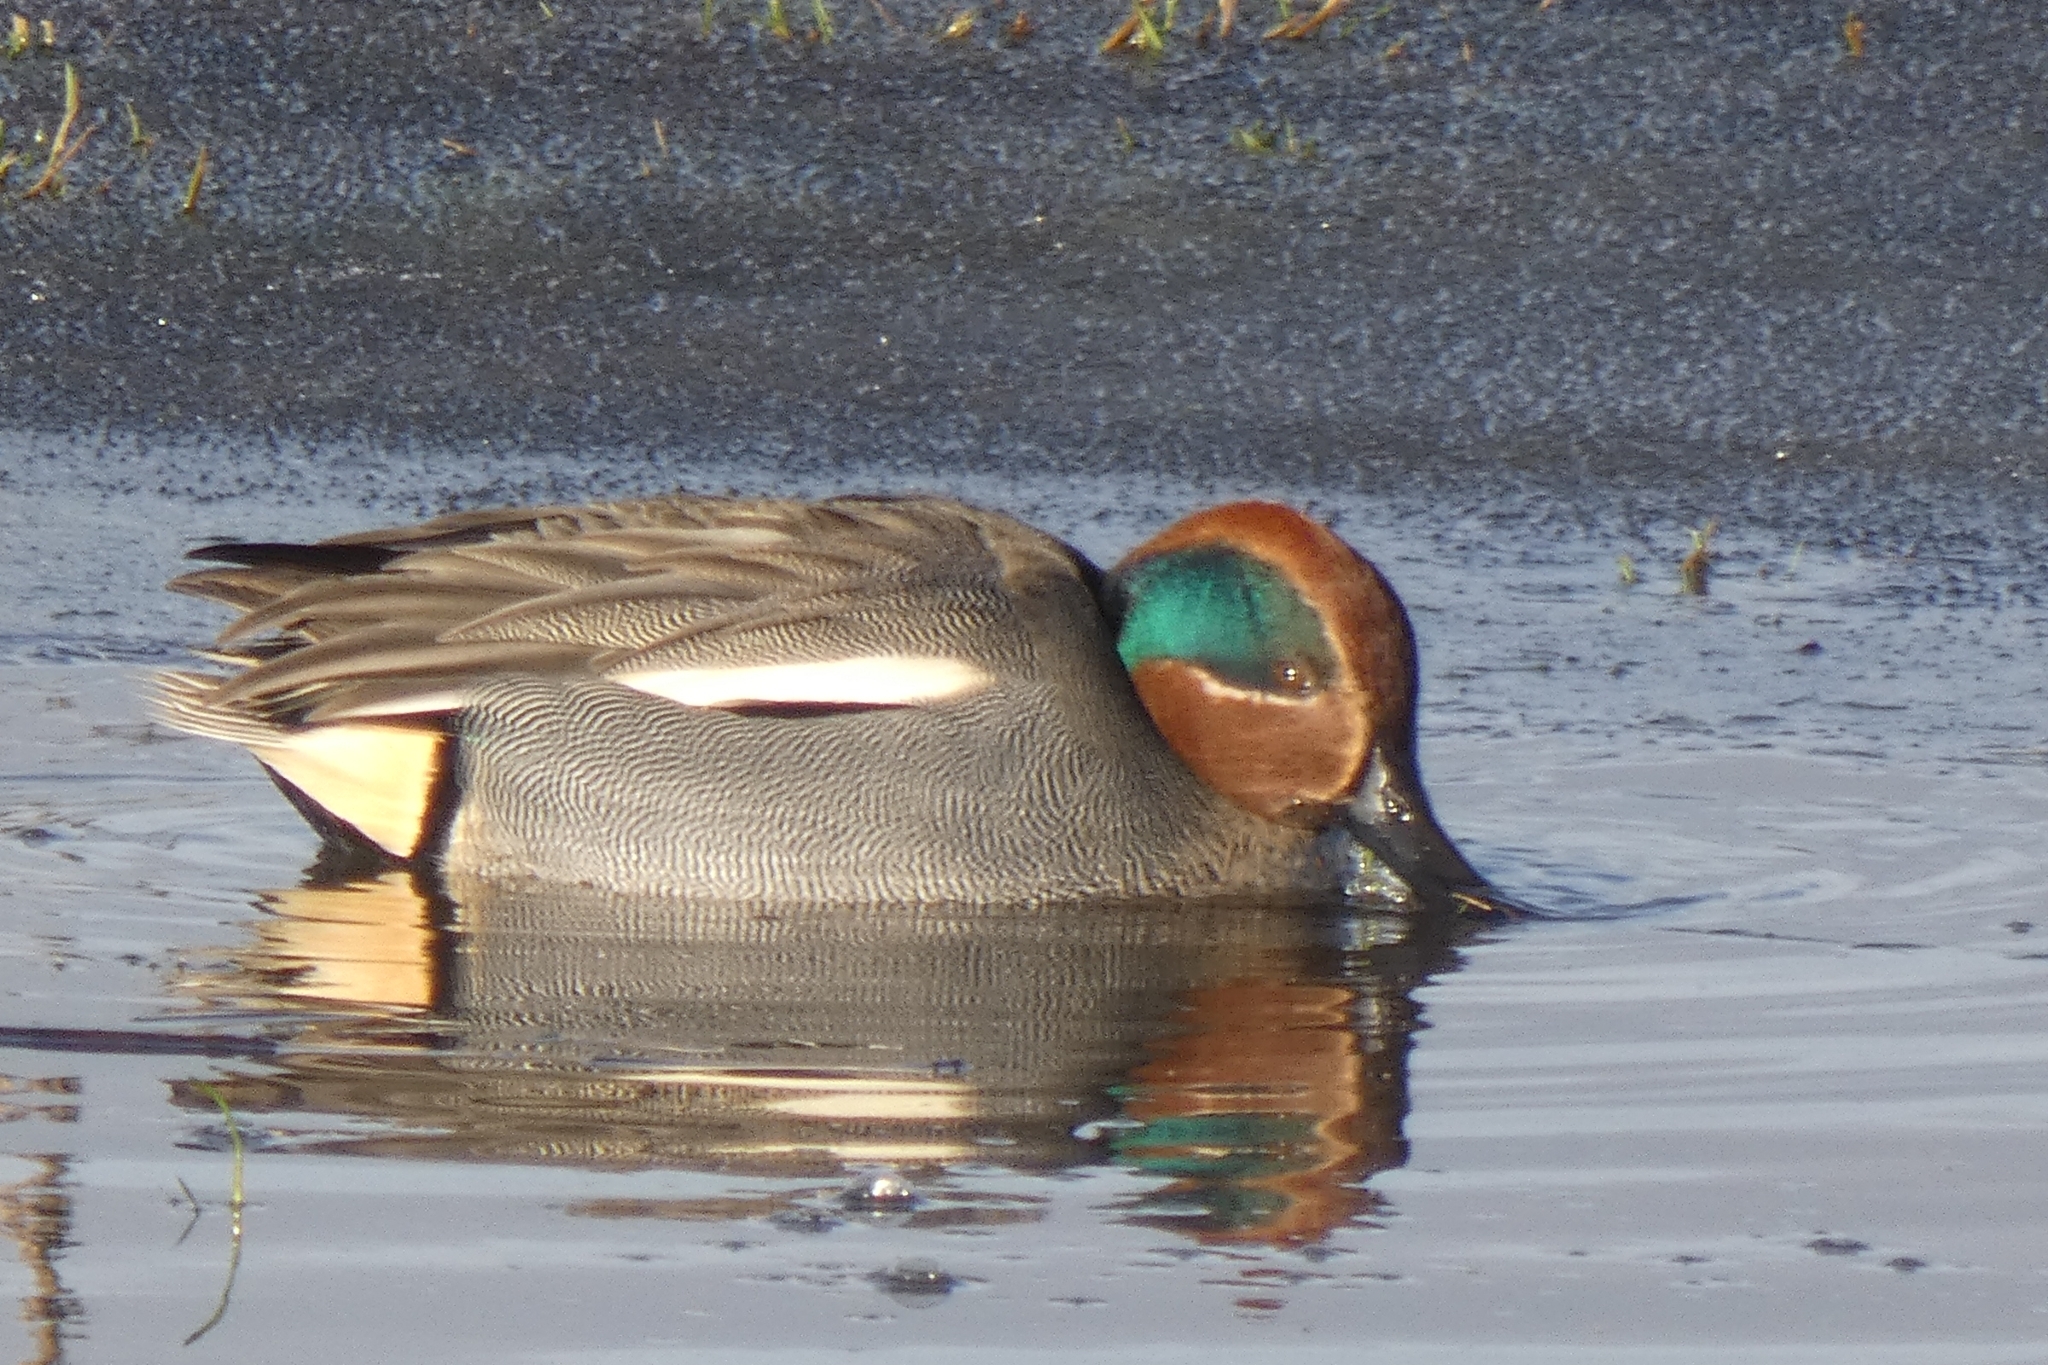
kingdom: Animalia
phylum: Chordata
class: Aves
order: Anseriformes
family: Anatidae
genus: Anas
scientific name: Anas crecca
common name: Eurasian teal
